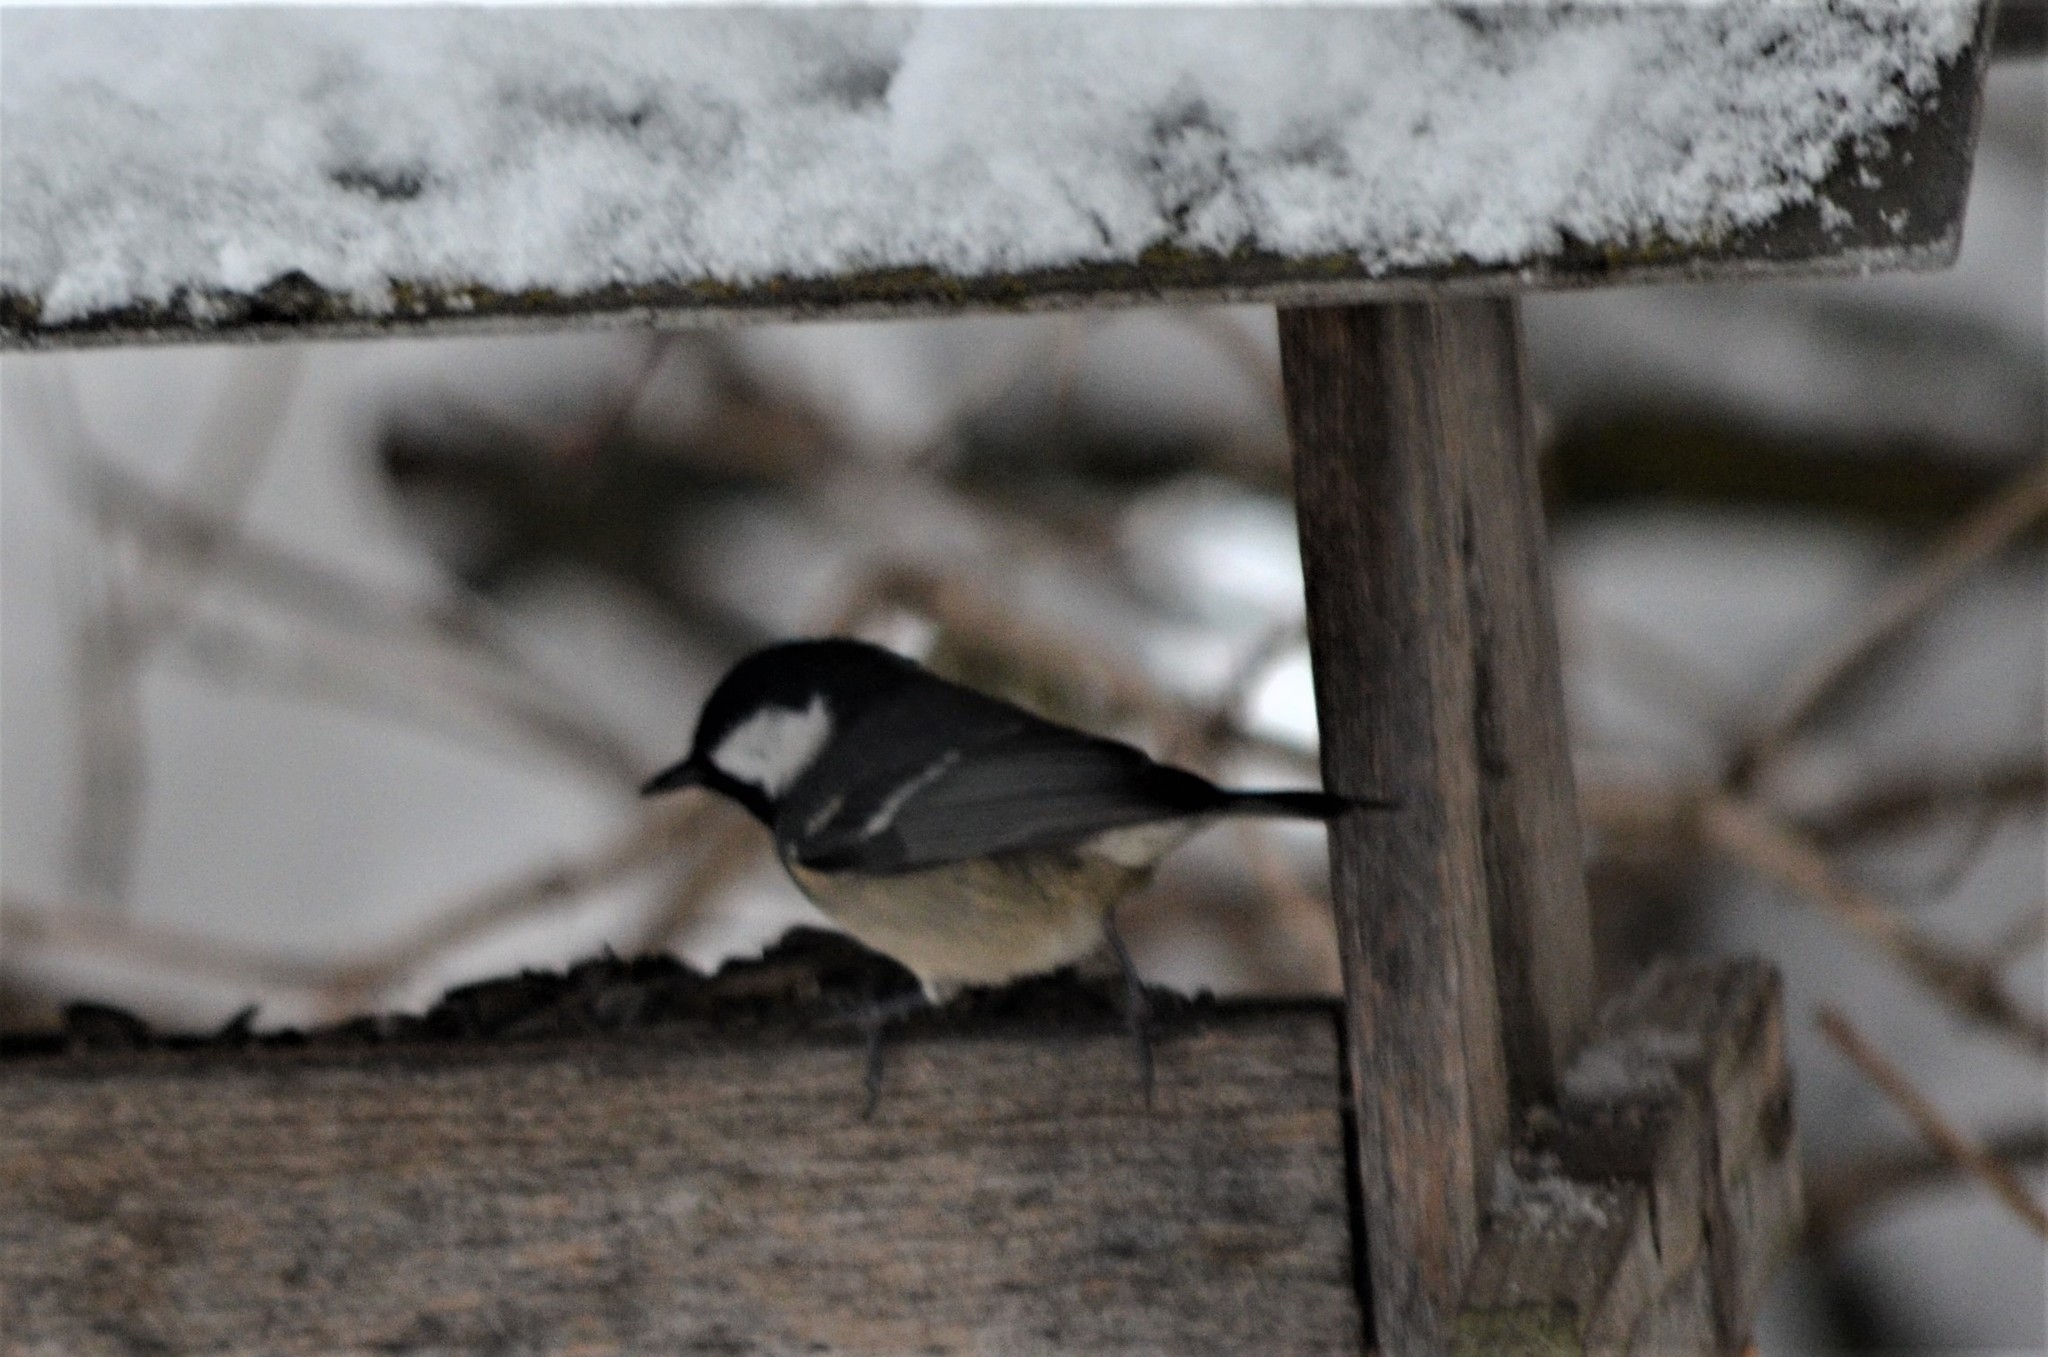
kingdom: Animalia
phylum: Chordata
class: Aves
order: Passeriformes
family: Paridae
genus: Periparus
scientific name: Periparus ater
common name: Coal tit
